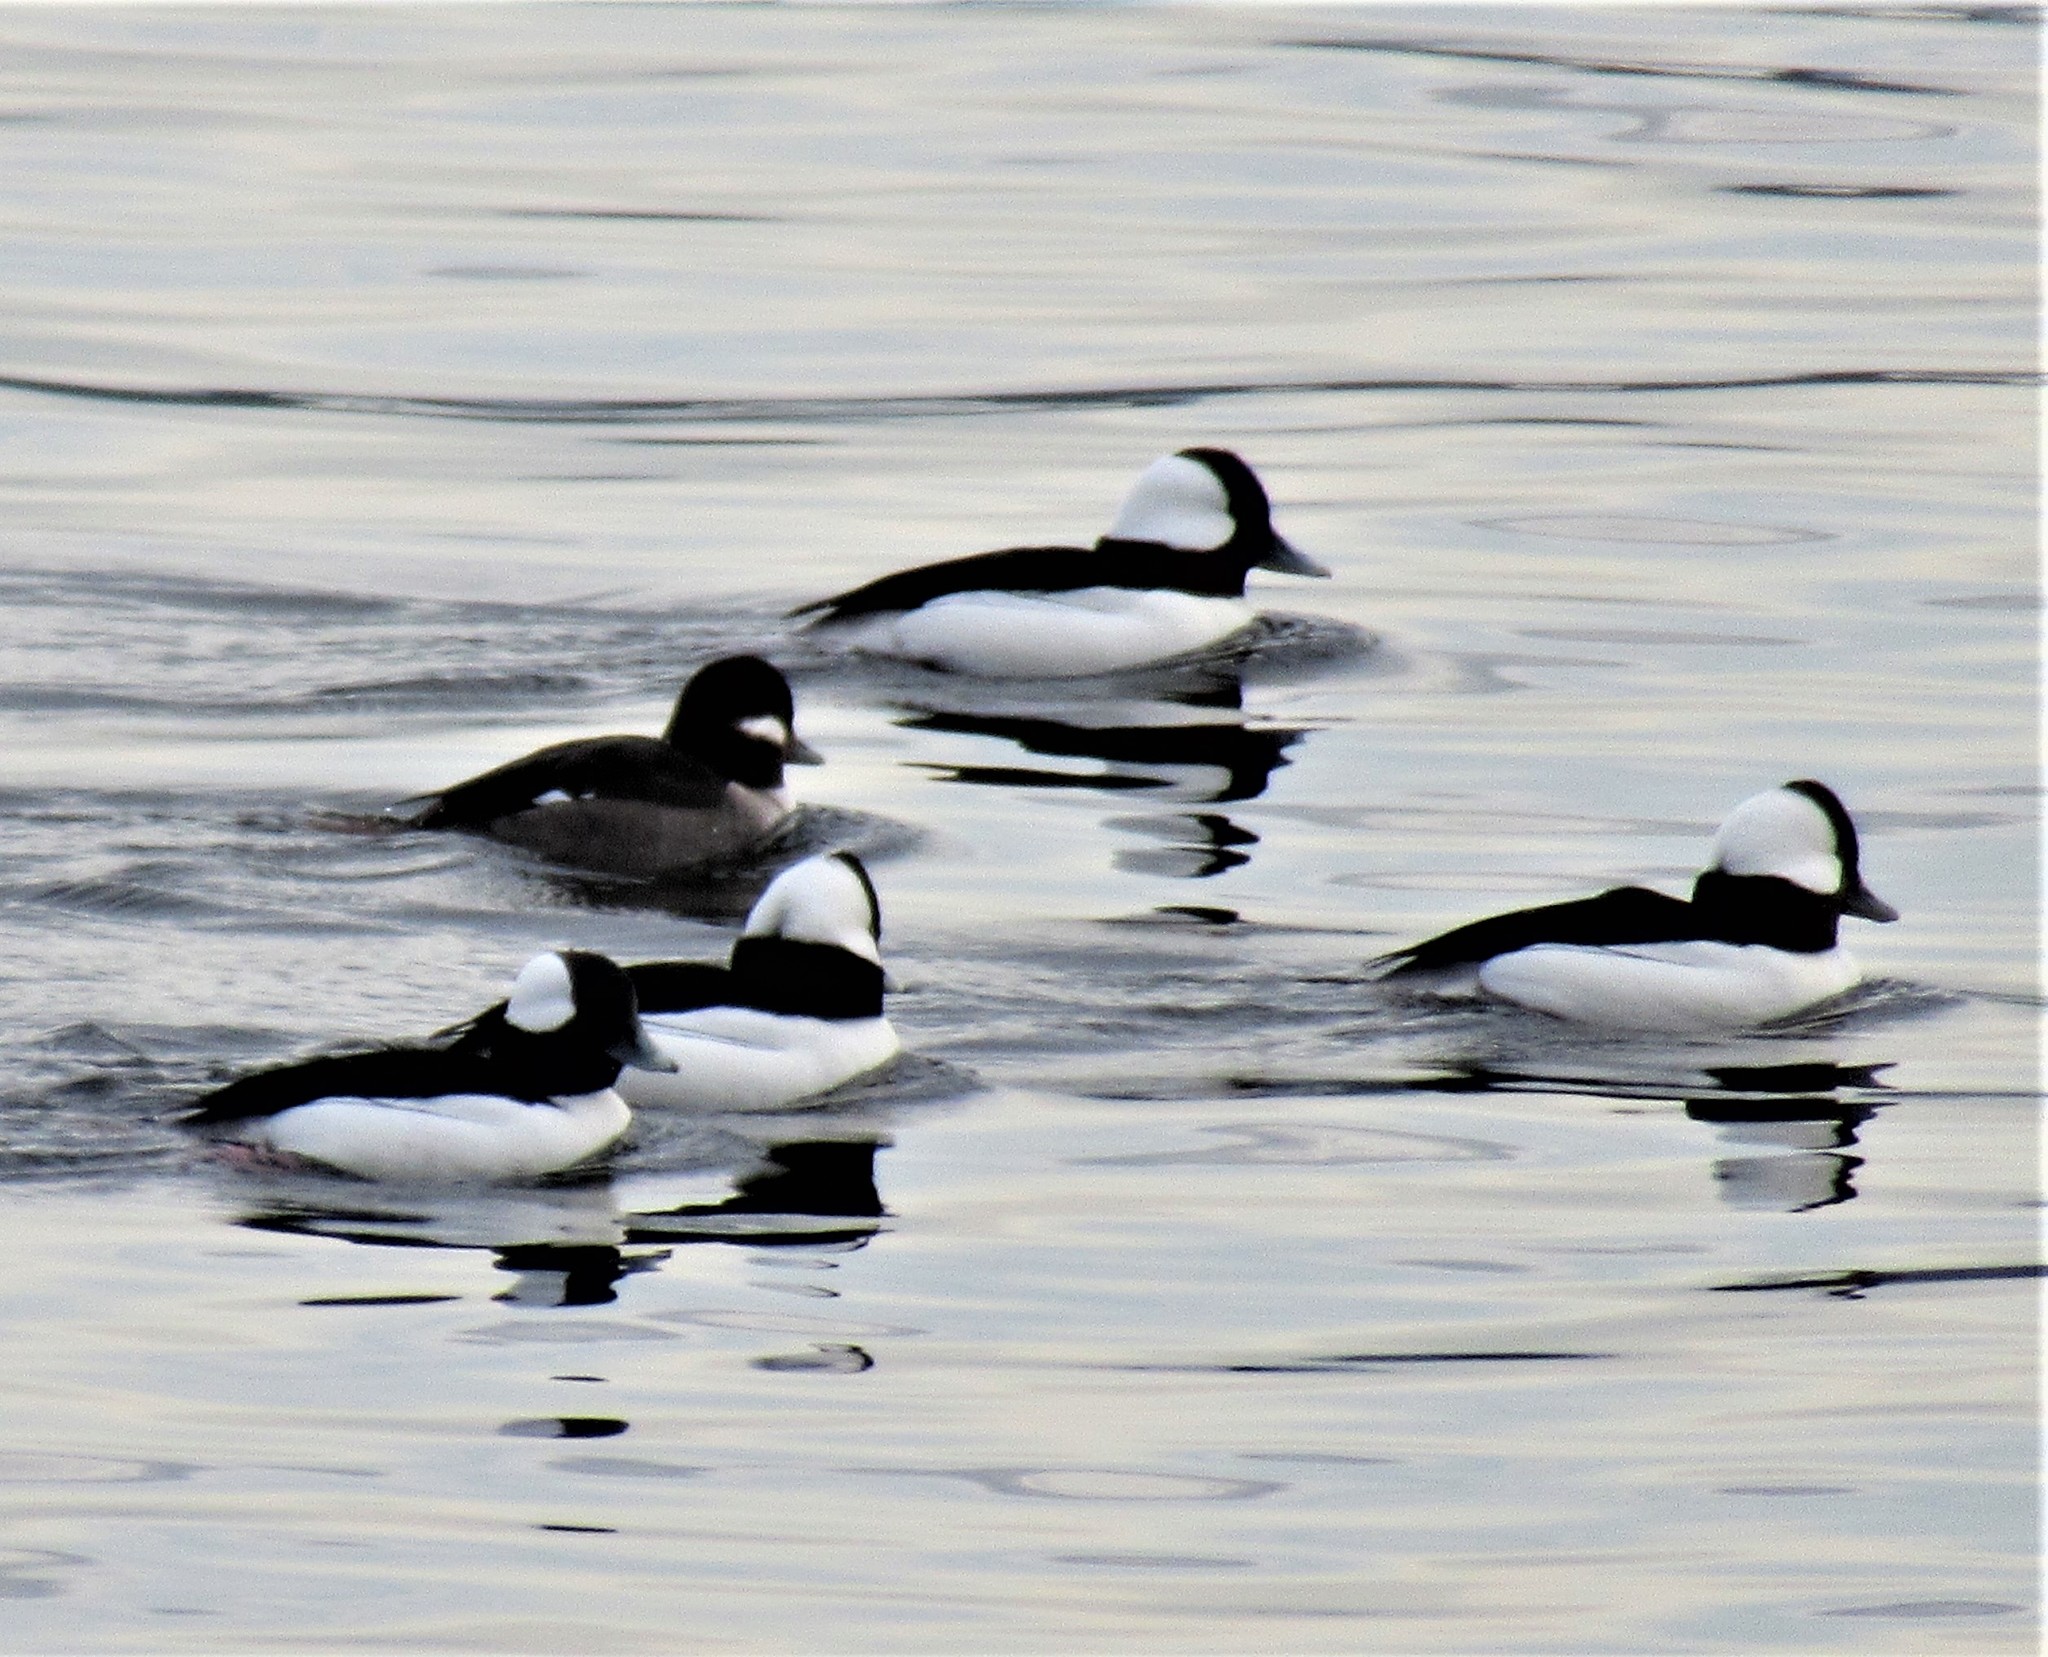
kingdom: Animalia
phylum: Chordata
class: Aves
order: Anseriformes
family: Anatidae
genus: Bucephala
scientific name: Bucephala albeola
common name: Bufflehead
